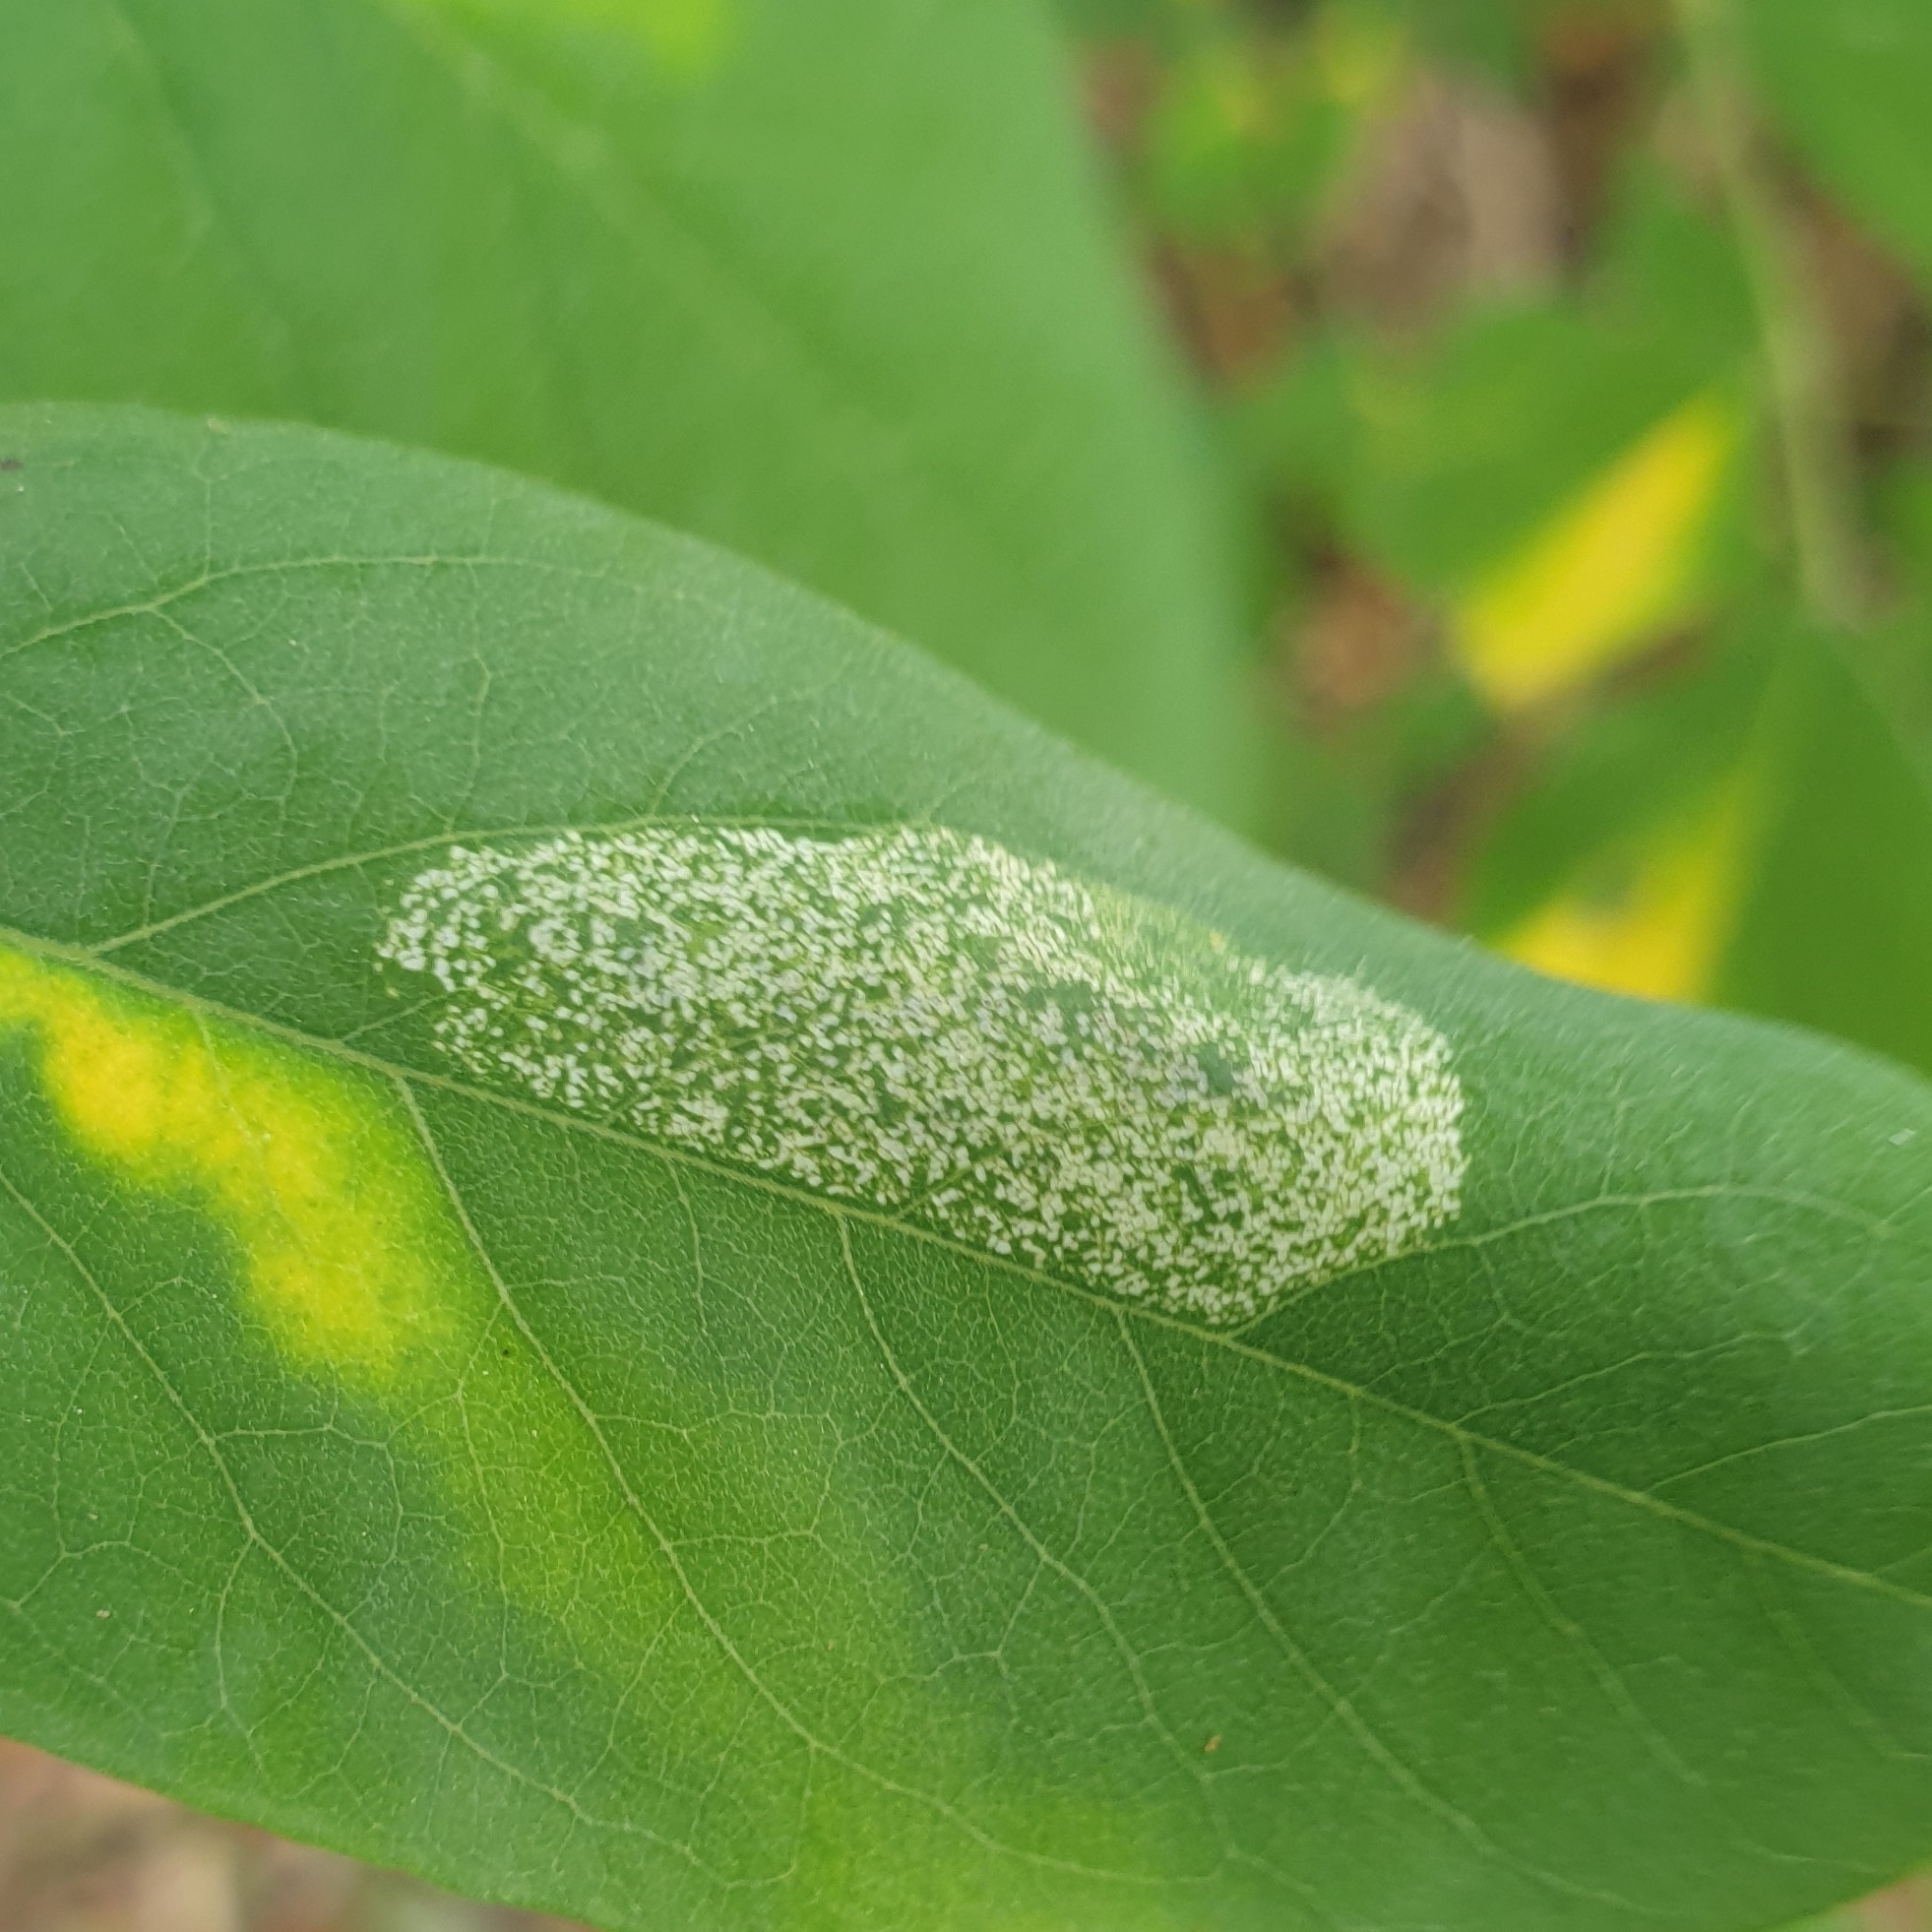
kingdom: Animalia
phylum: Arthropoda
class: Insecta
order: Lepidoptera
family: Gracillariidae
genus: Macrosaccus
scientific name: Macrosaccus robiniella
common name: Leaf blotch miner moth
